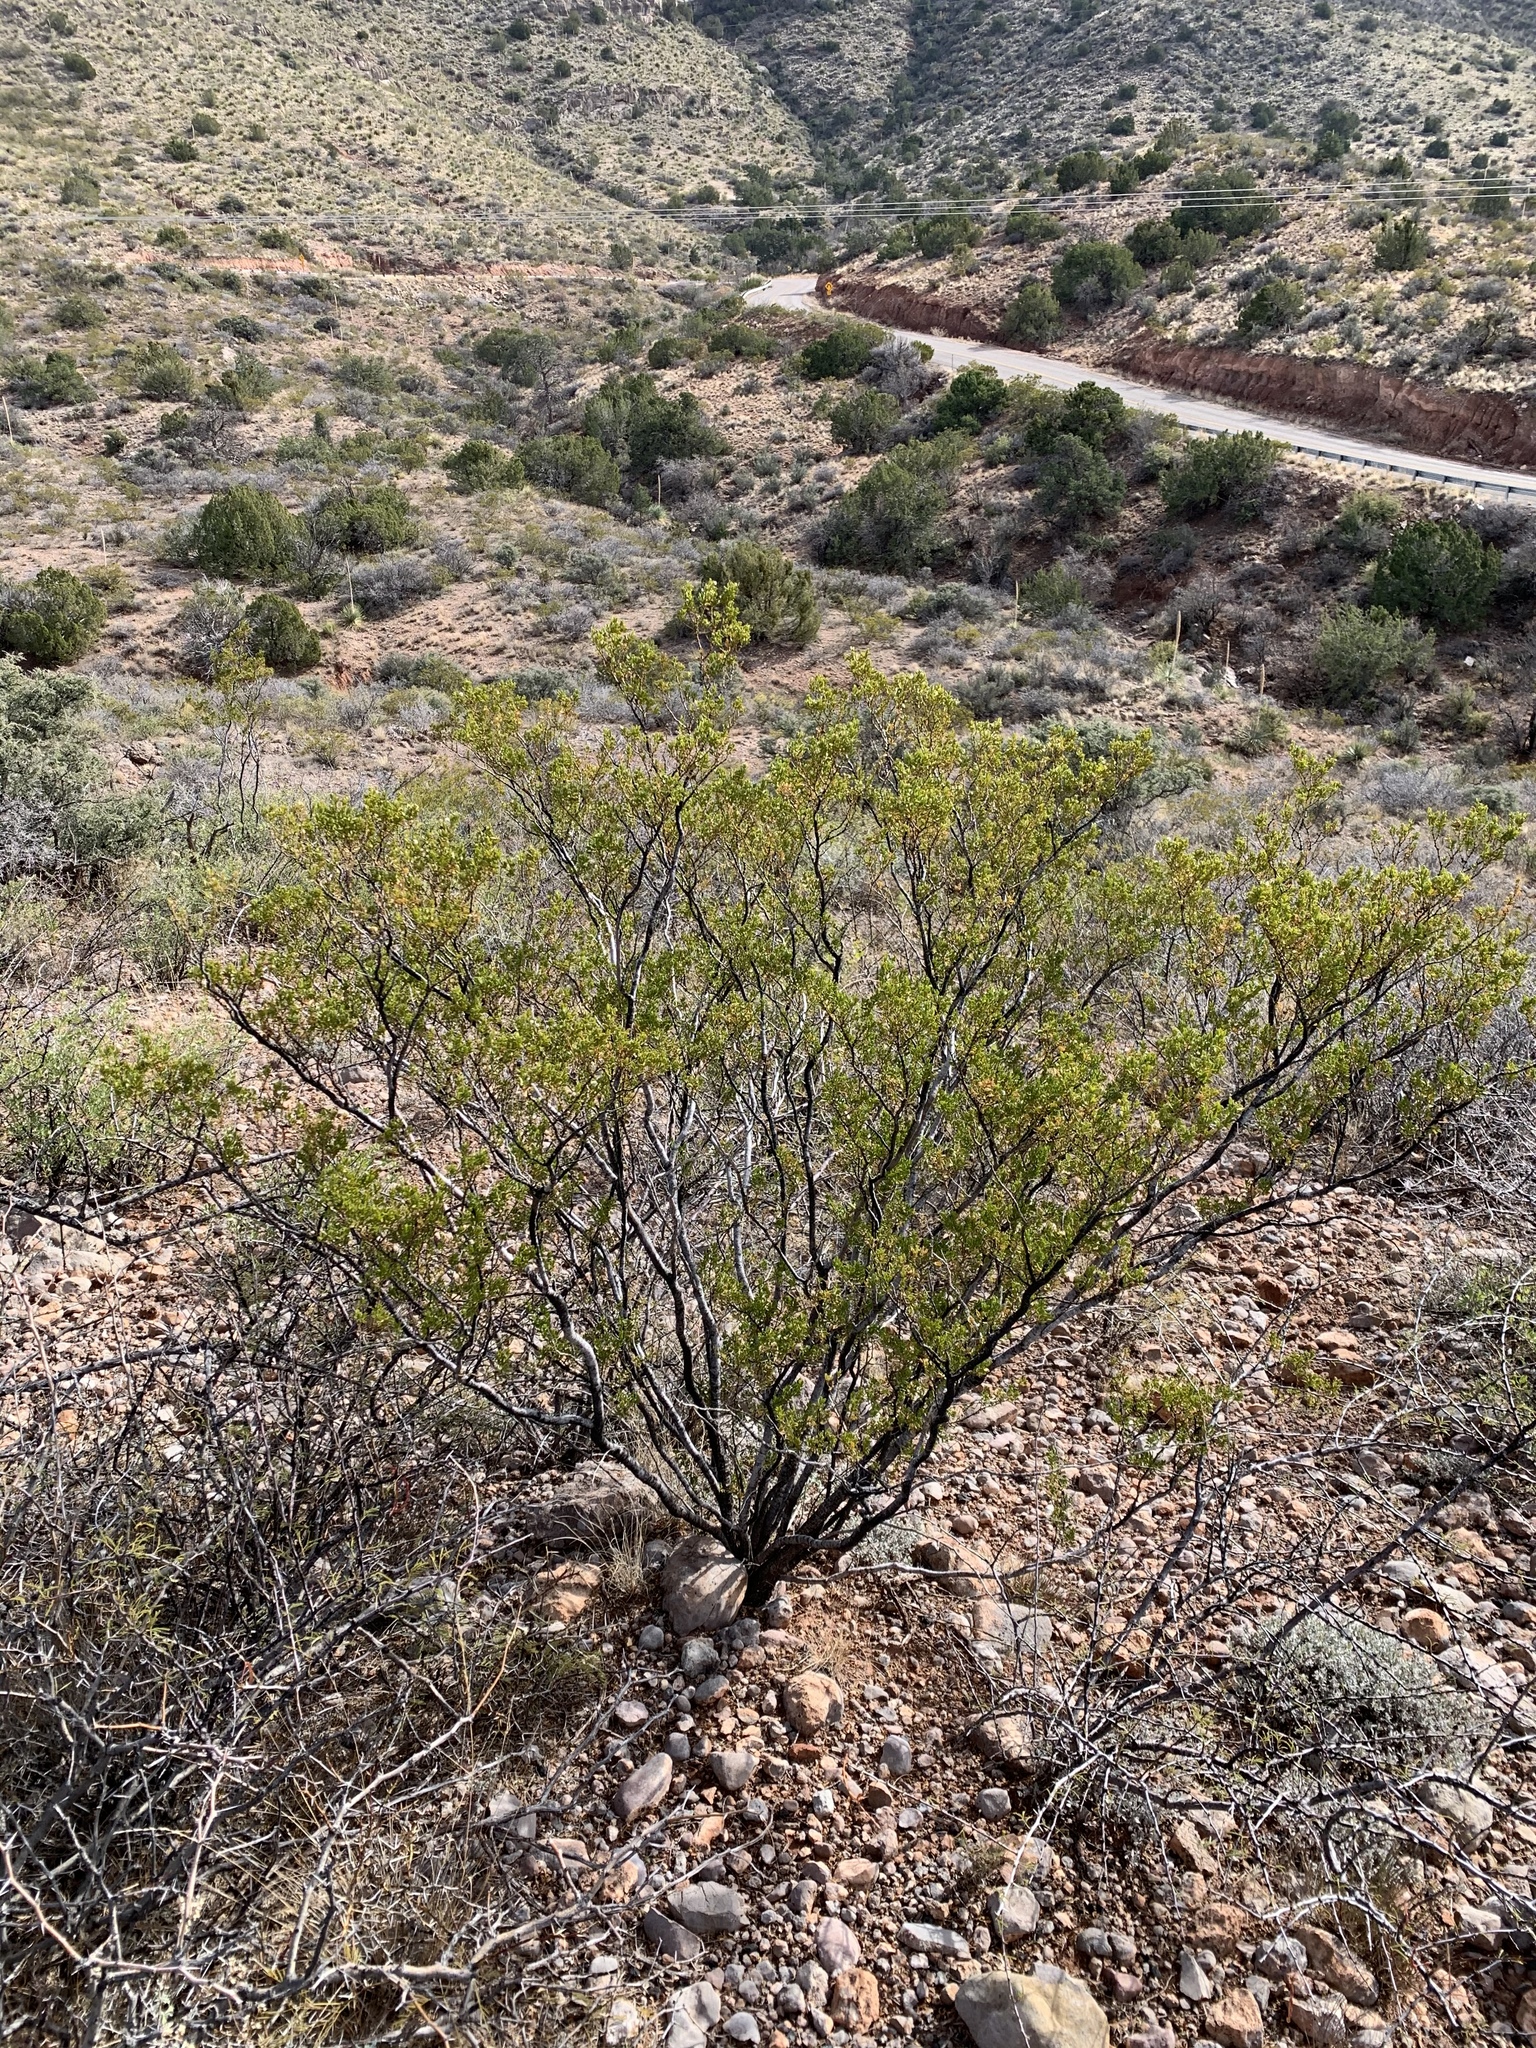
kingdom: Plantae
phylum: Tracheophyta
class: Magnoliopsida
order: Zygophyllales
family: Zygophyllaceae
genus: Larrea
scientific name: Larrea tridentata
